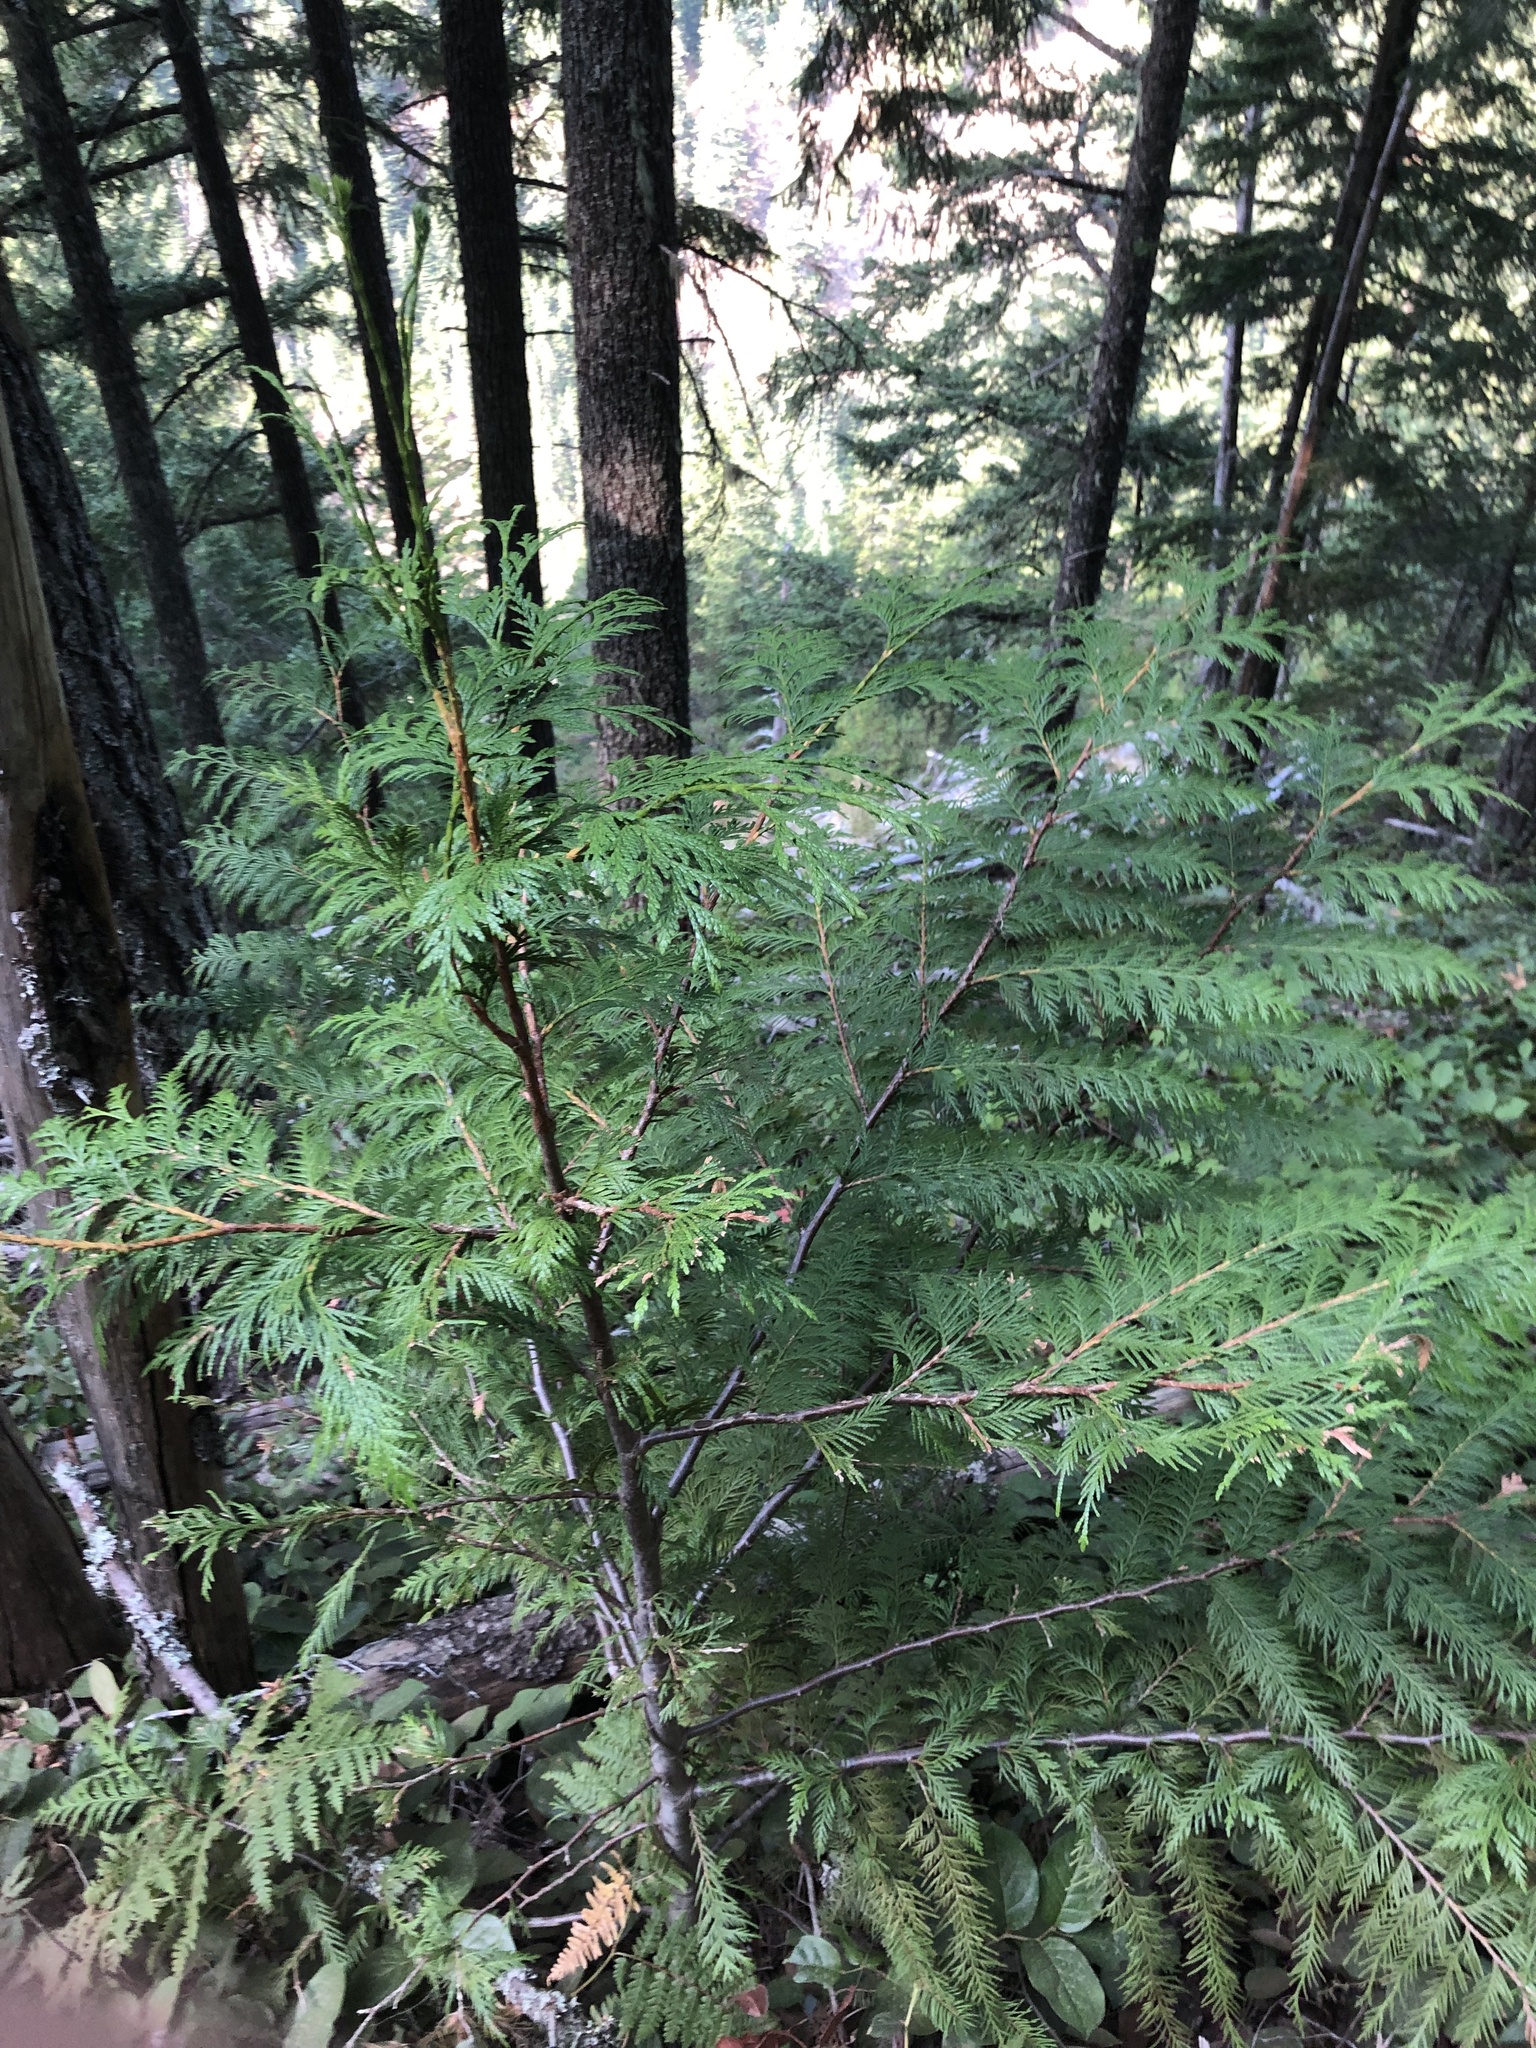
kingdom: Plantae
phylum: Tracheophyta
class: Pinopsida
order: Pinales
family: Cupressaceae
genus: Thuja
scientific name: Thuja plicata
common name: Western red-cedar
